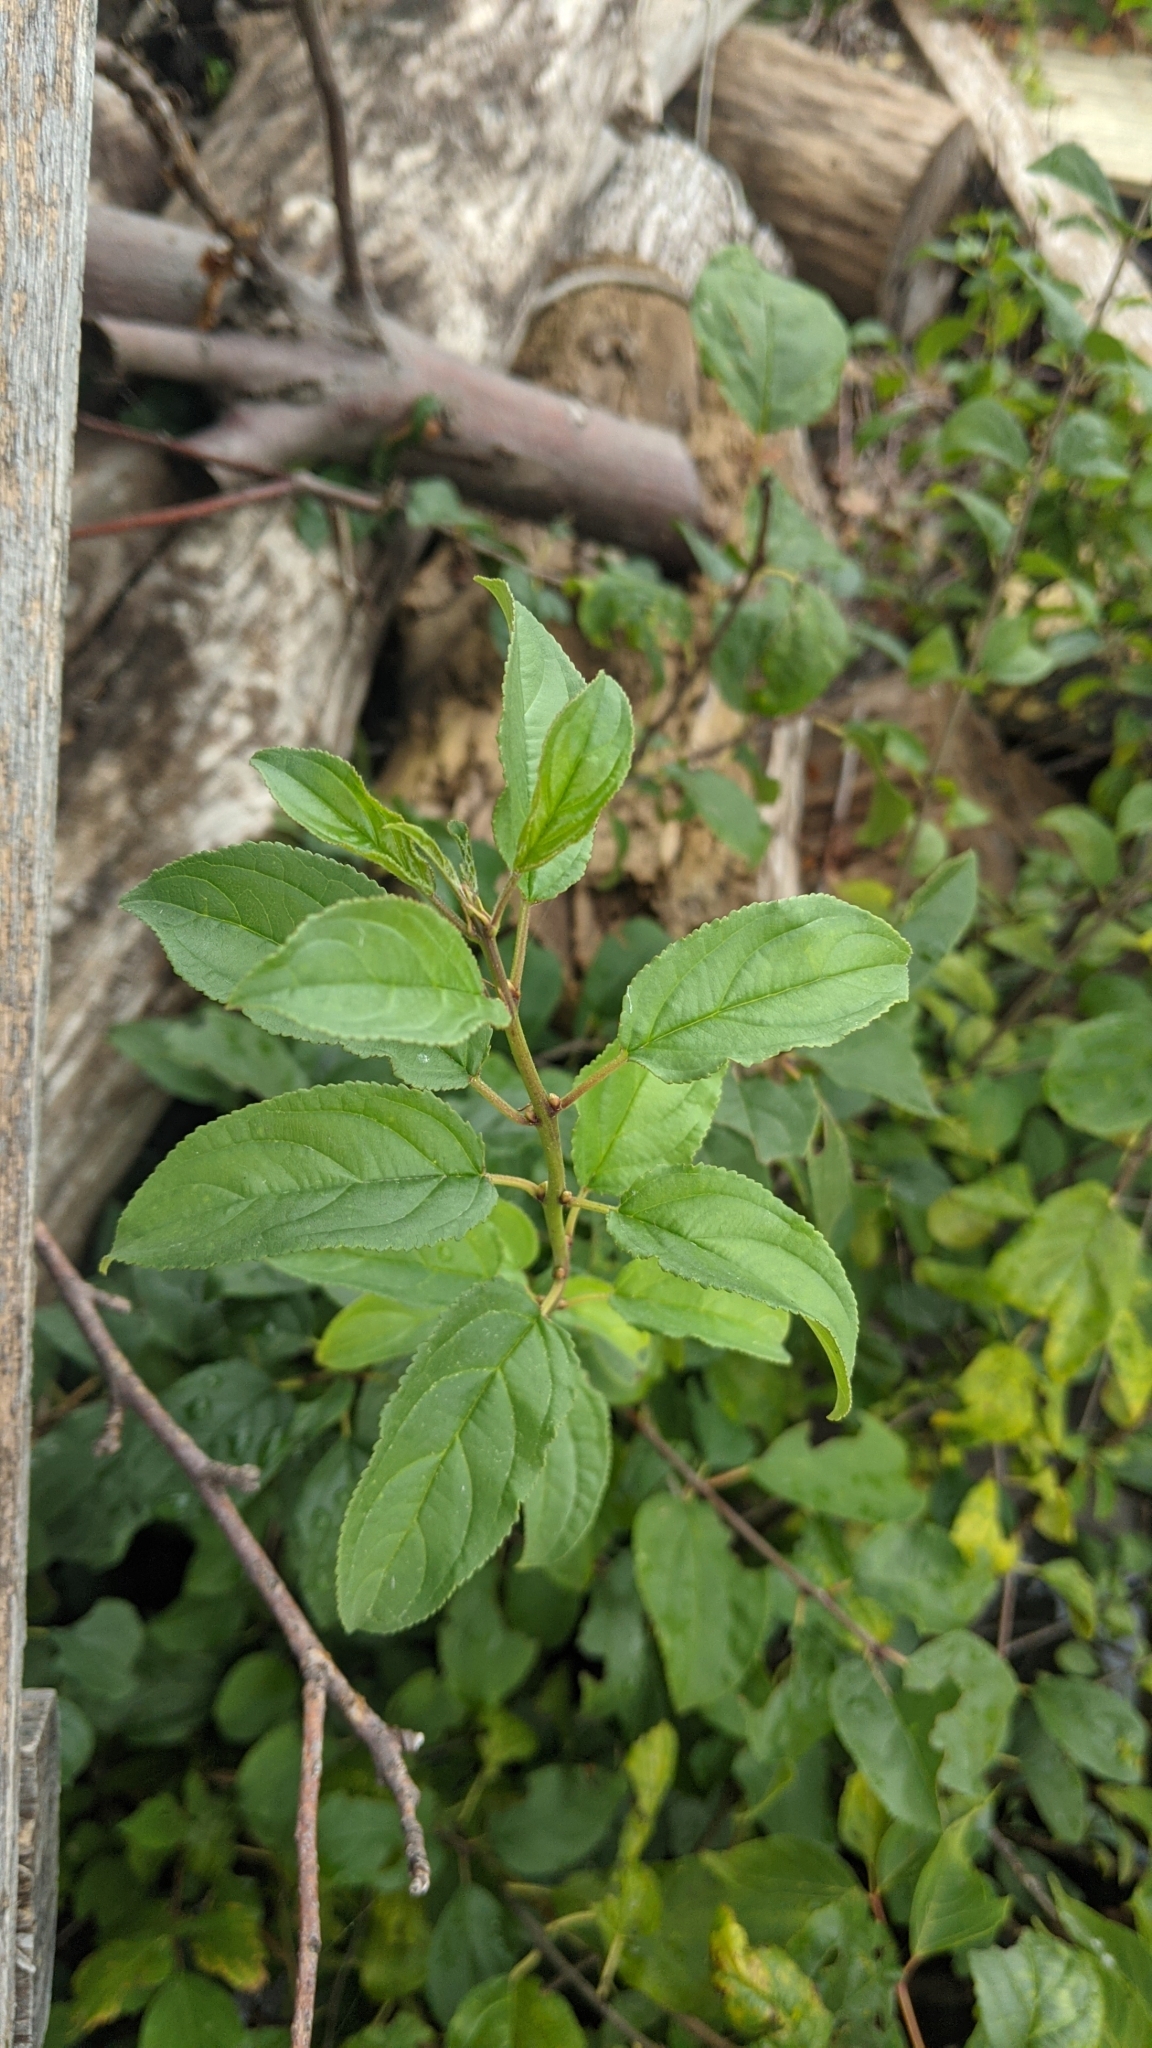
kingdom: Plantae
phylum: Tracheophyta
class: Magnoliopsida
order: Rosales
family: Rhamnaceae
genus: Rhamnus
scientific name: Rhamnus cathartica
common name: Common buckthorn
